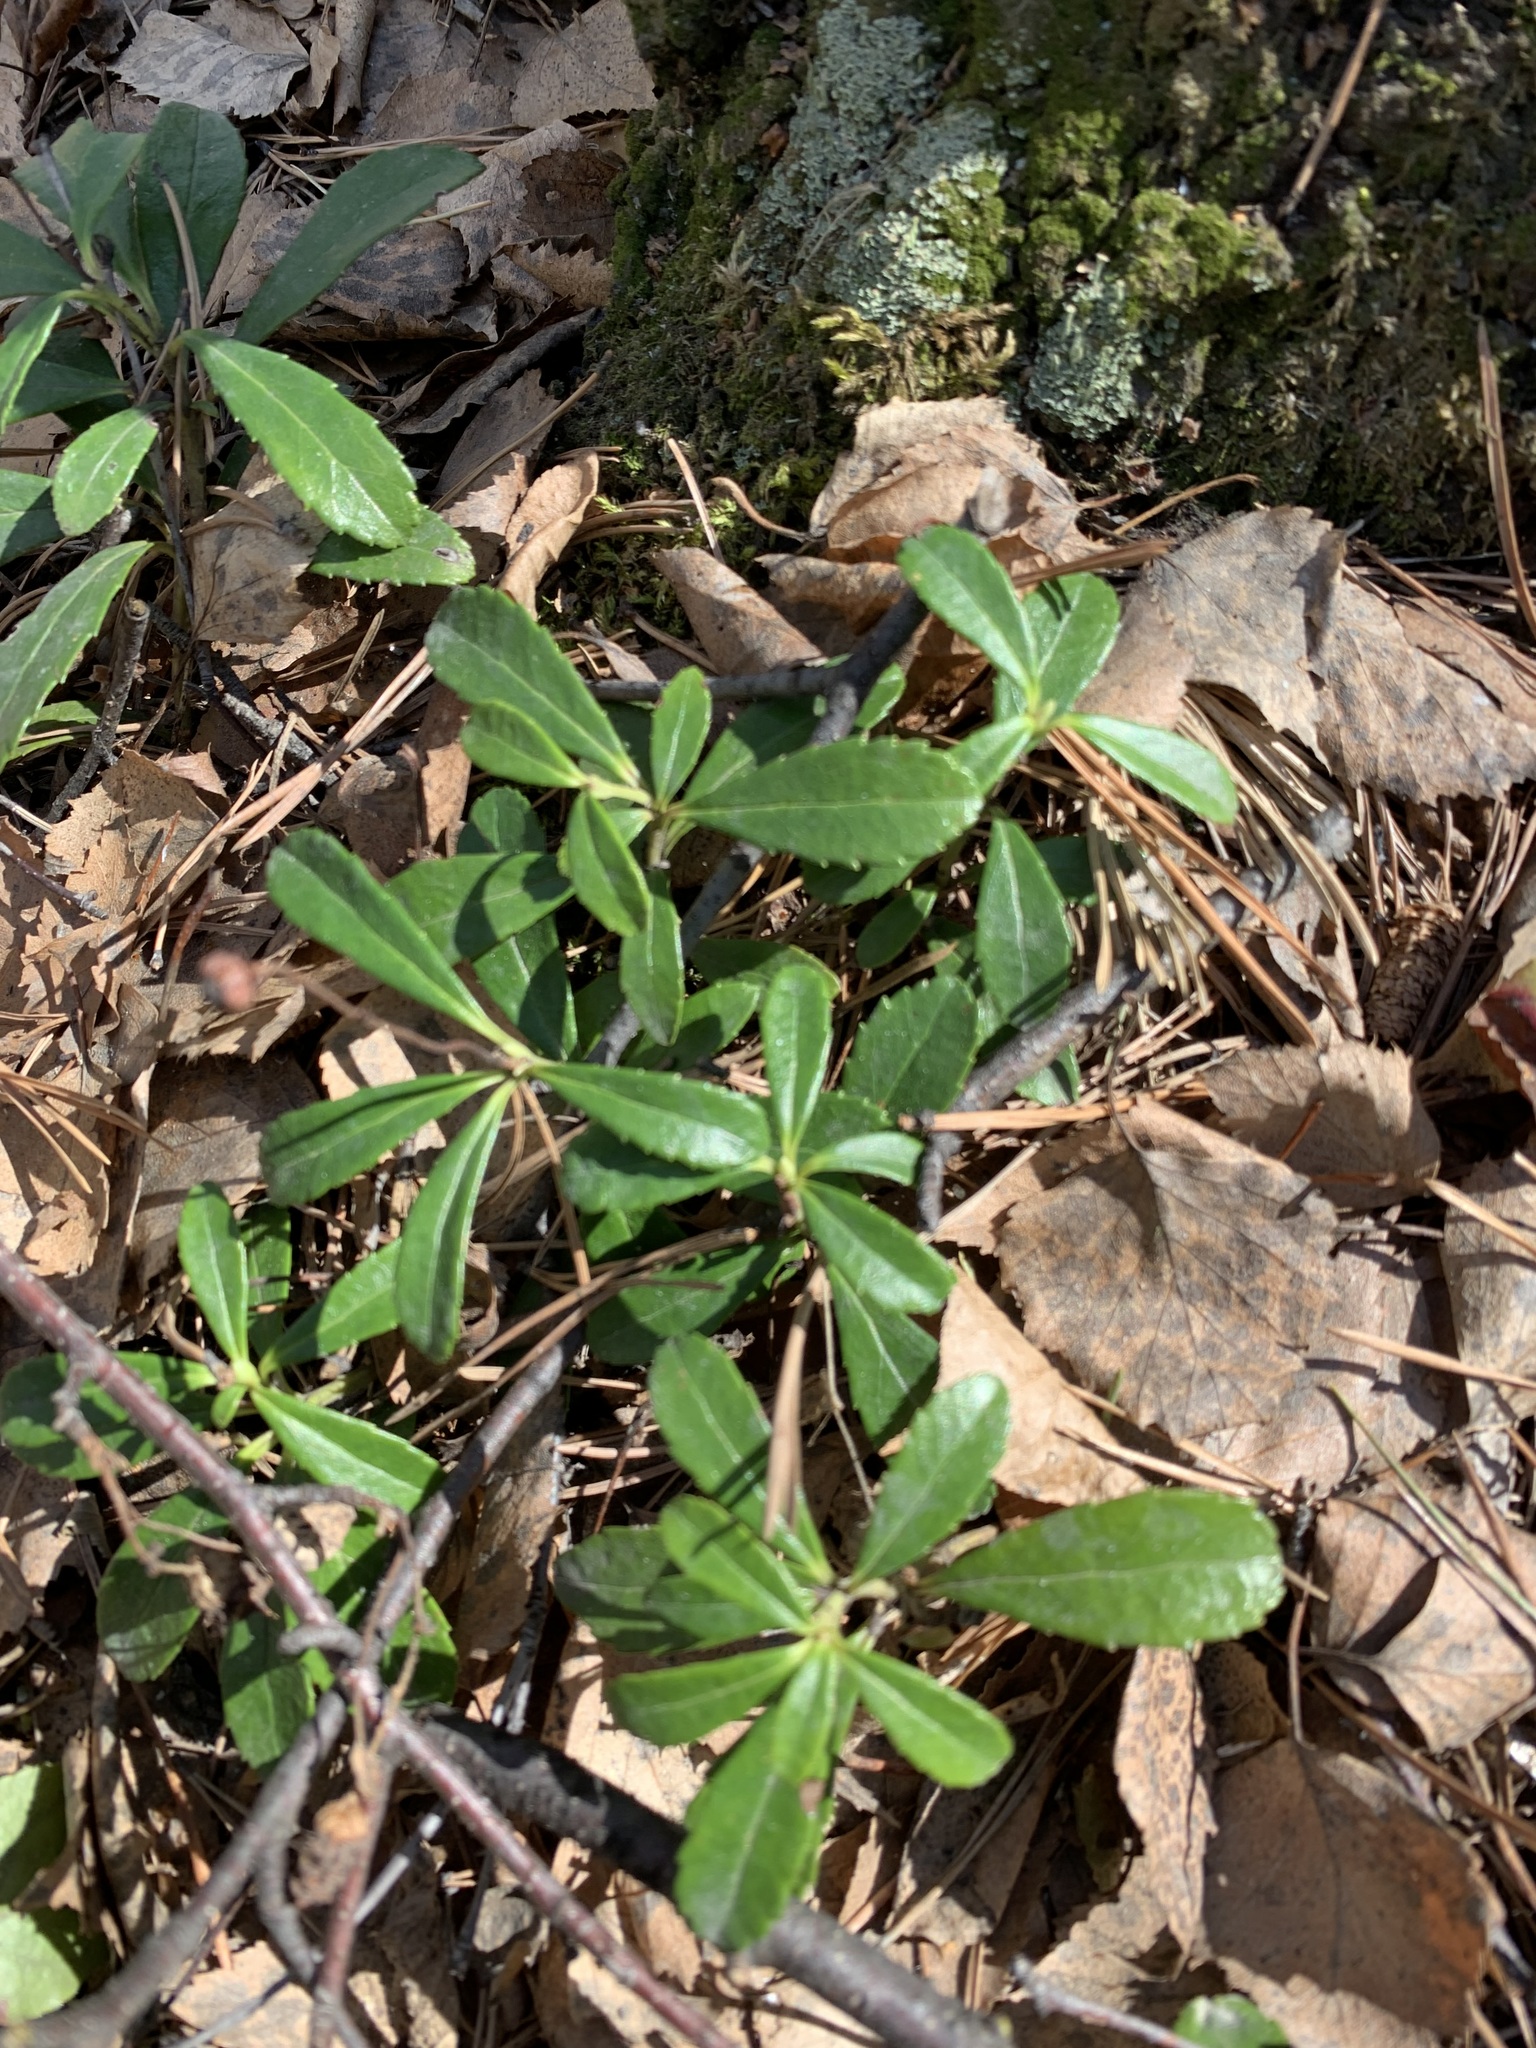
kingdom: Plantae
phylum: Tracheophyta
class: Magnoliopsida
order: Ericales
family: Ericaceae
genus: Chimaphila
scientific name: Chimaphila umbellata
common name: Pipsissewa
